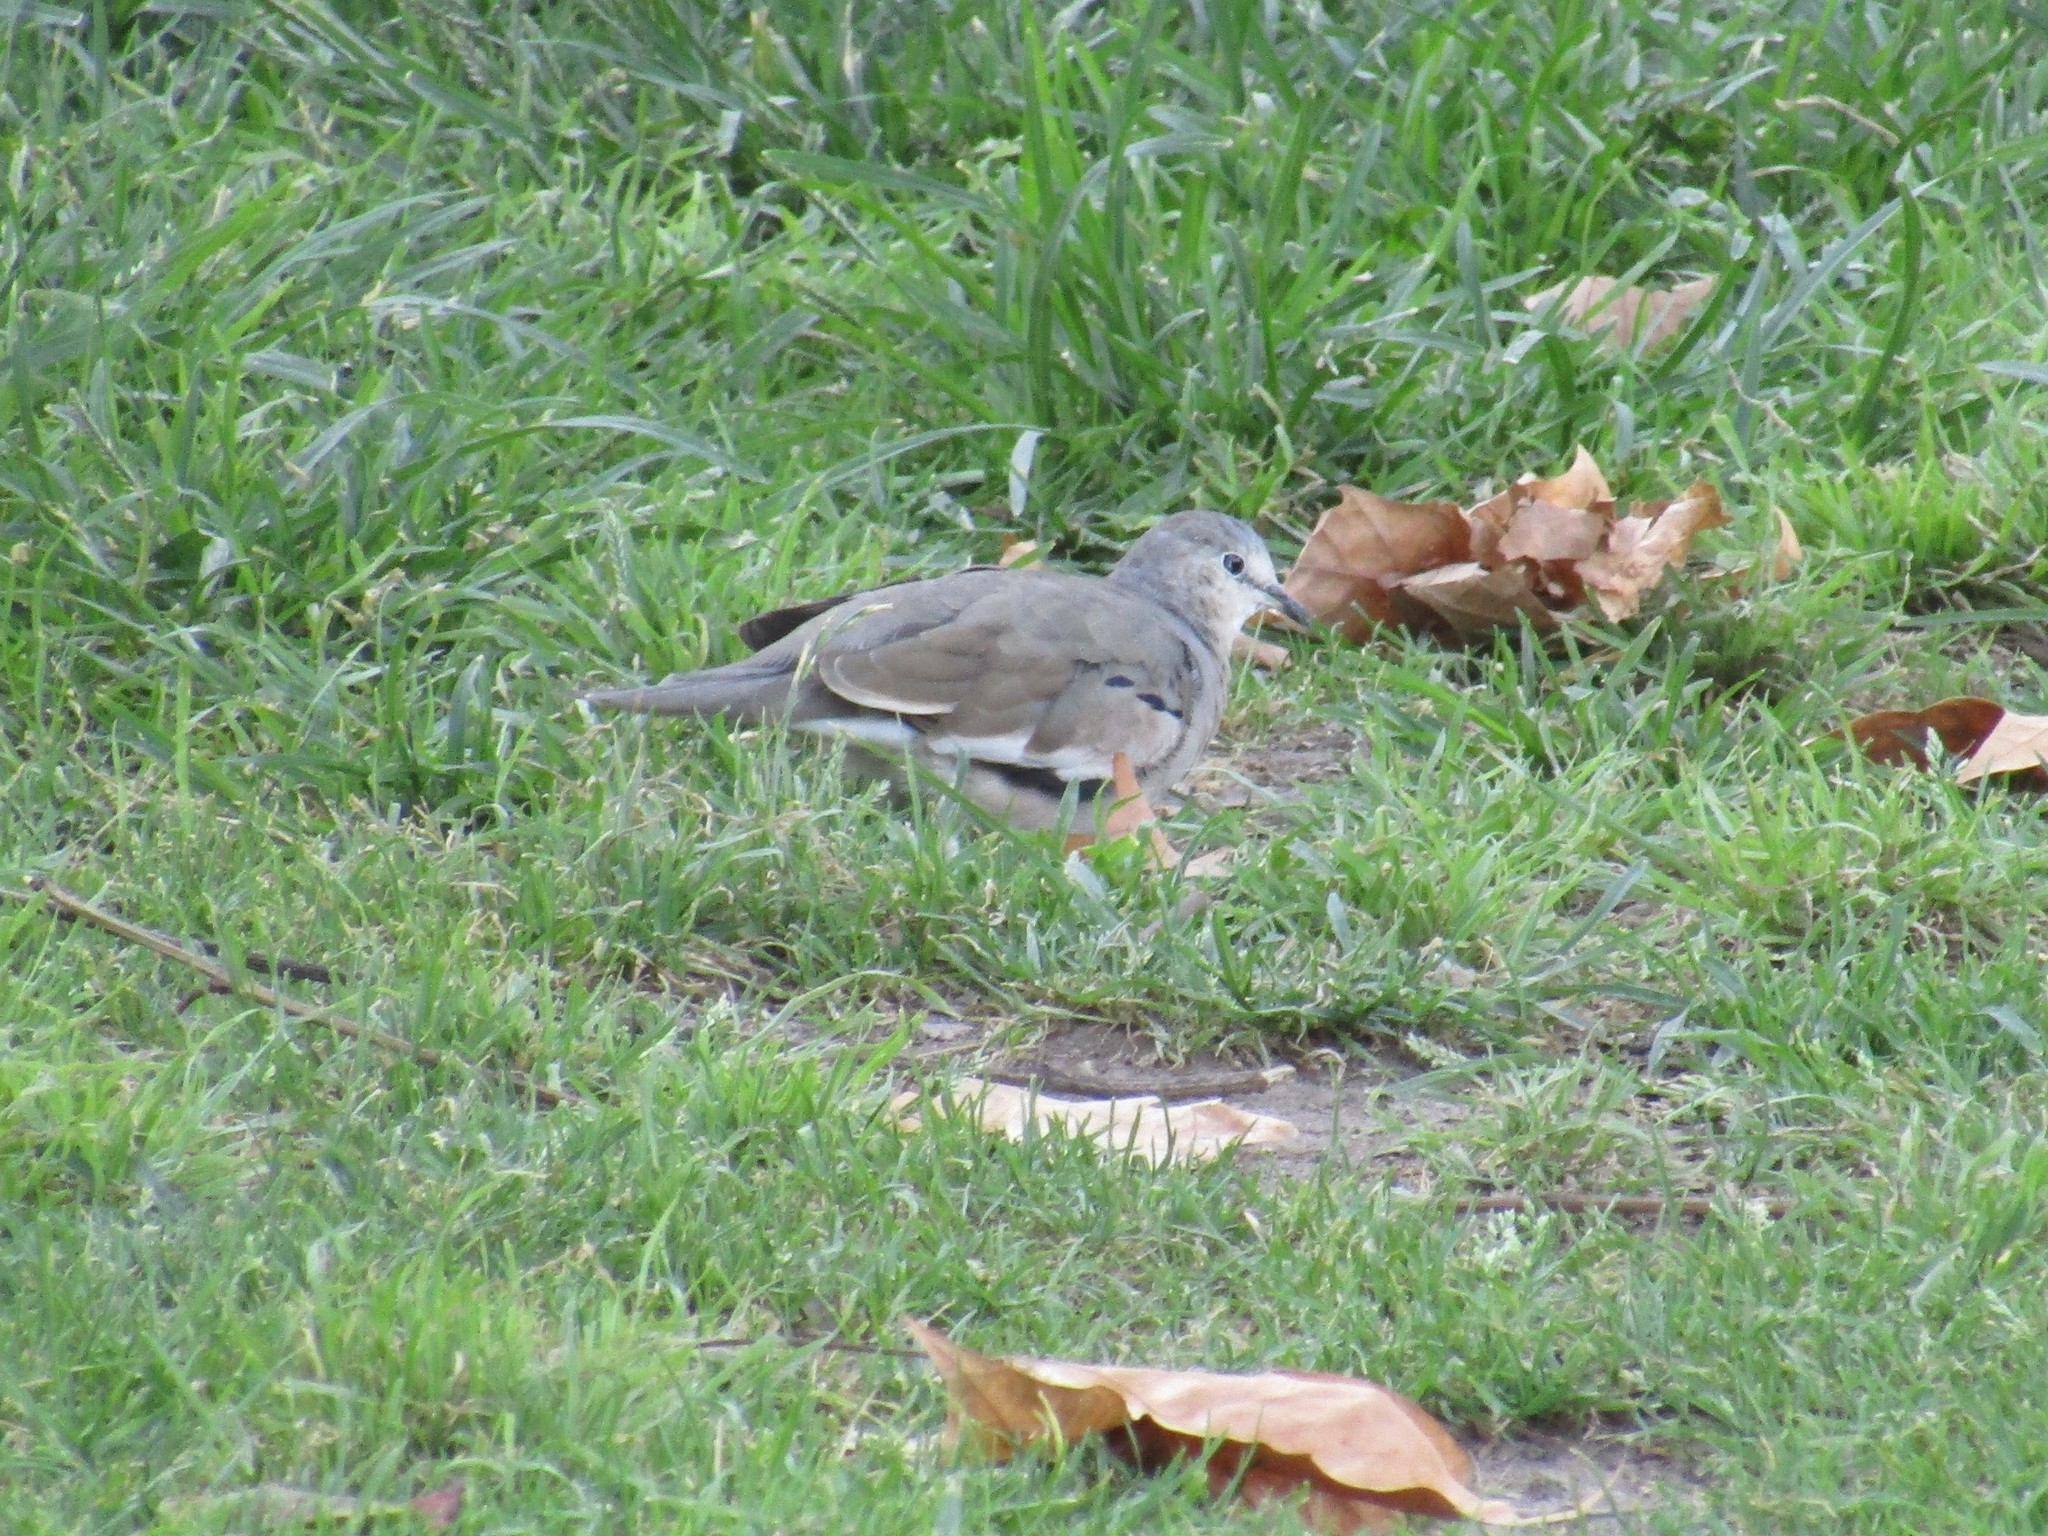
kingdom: Animalia
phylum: Chordata
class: Aves
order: Columbiformes
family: Columbidae
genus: Columbina
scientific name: Columbina picui
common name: Picui ground dove
